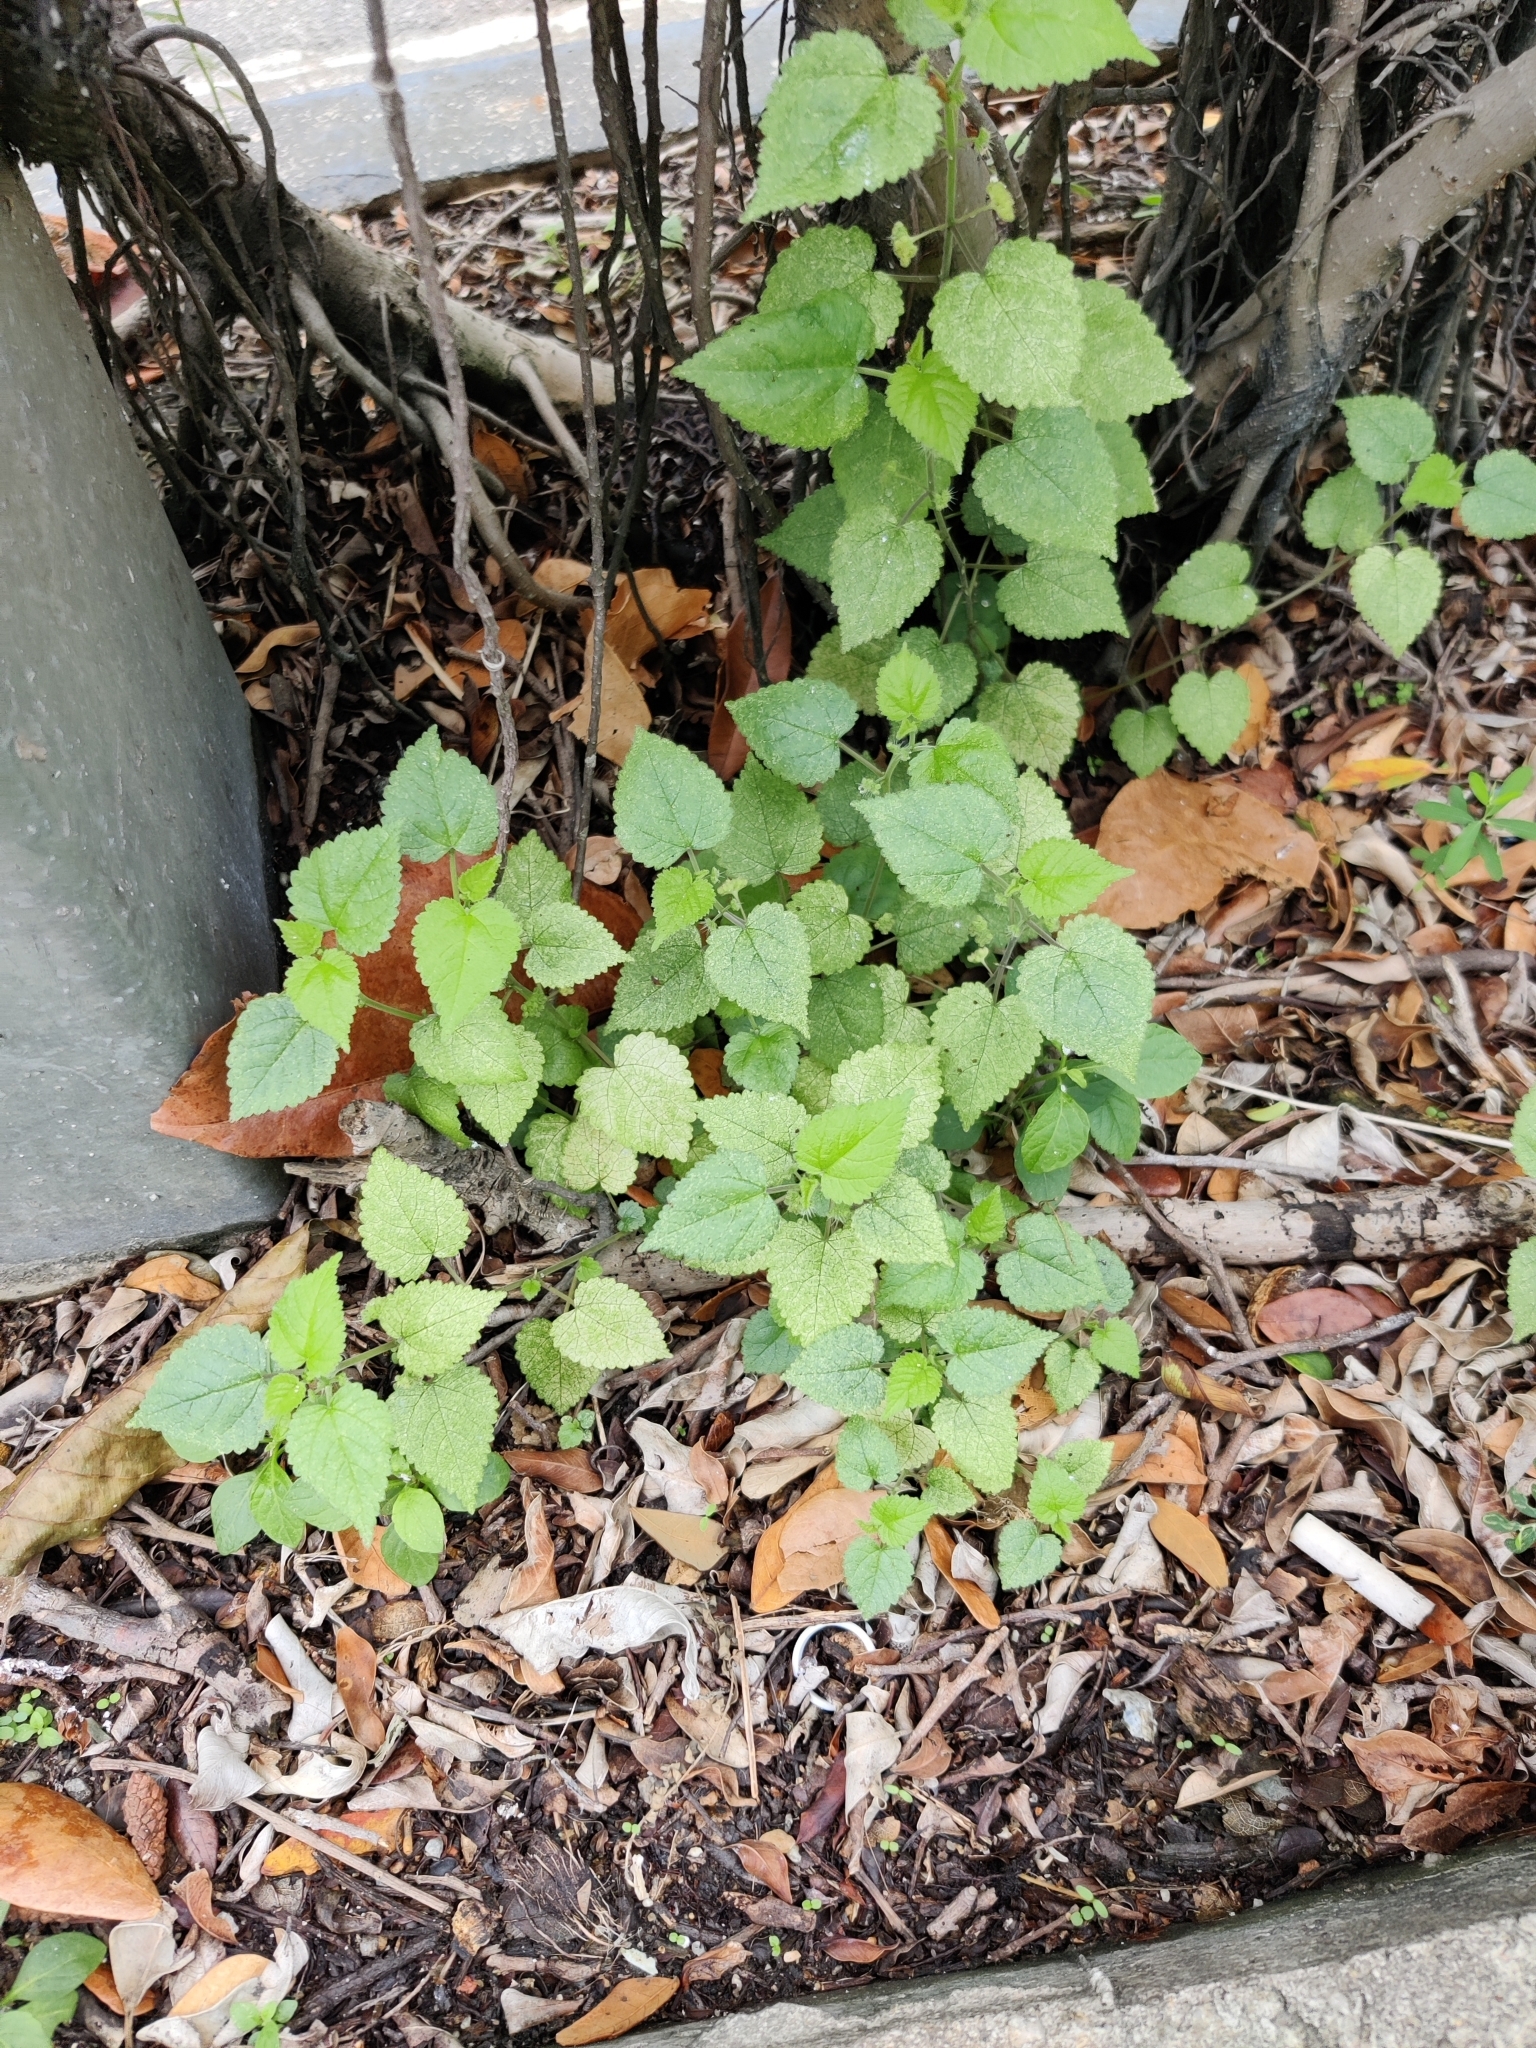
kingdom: Plantae
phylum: Tracheophyta
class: Magnoliopsida
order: Rosales
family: Moraceae
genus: Fatoua
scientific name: Fatoua villosa
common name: Hairy crabweed
